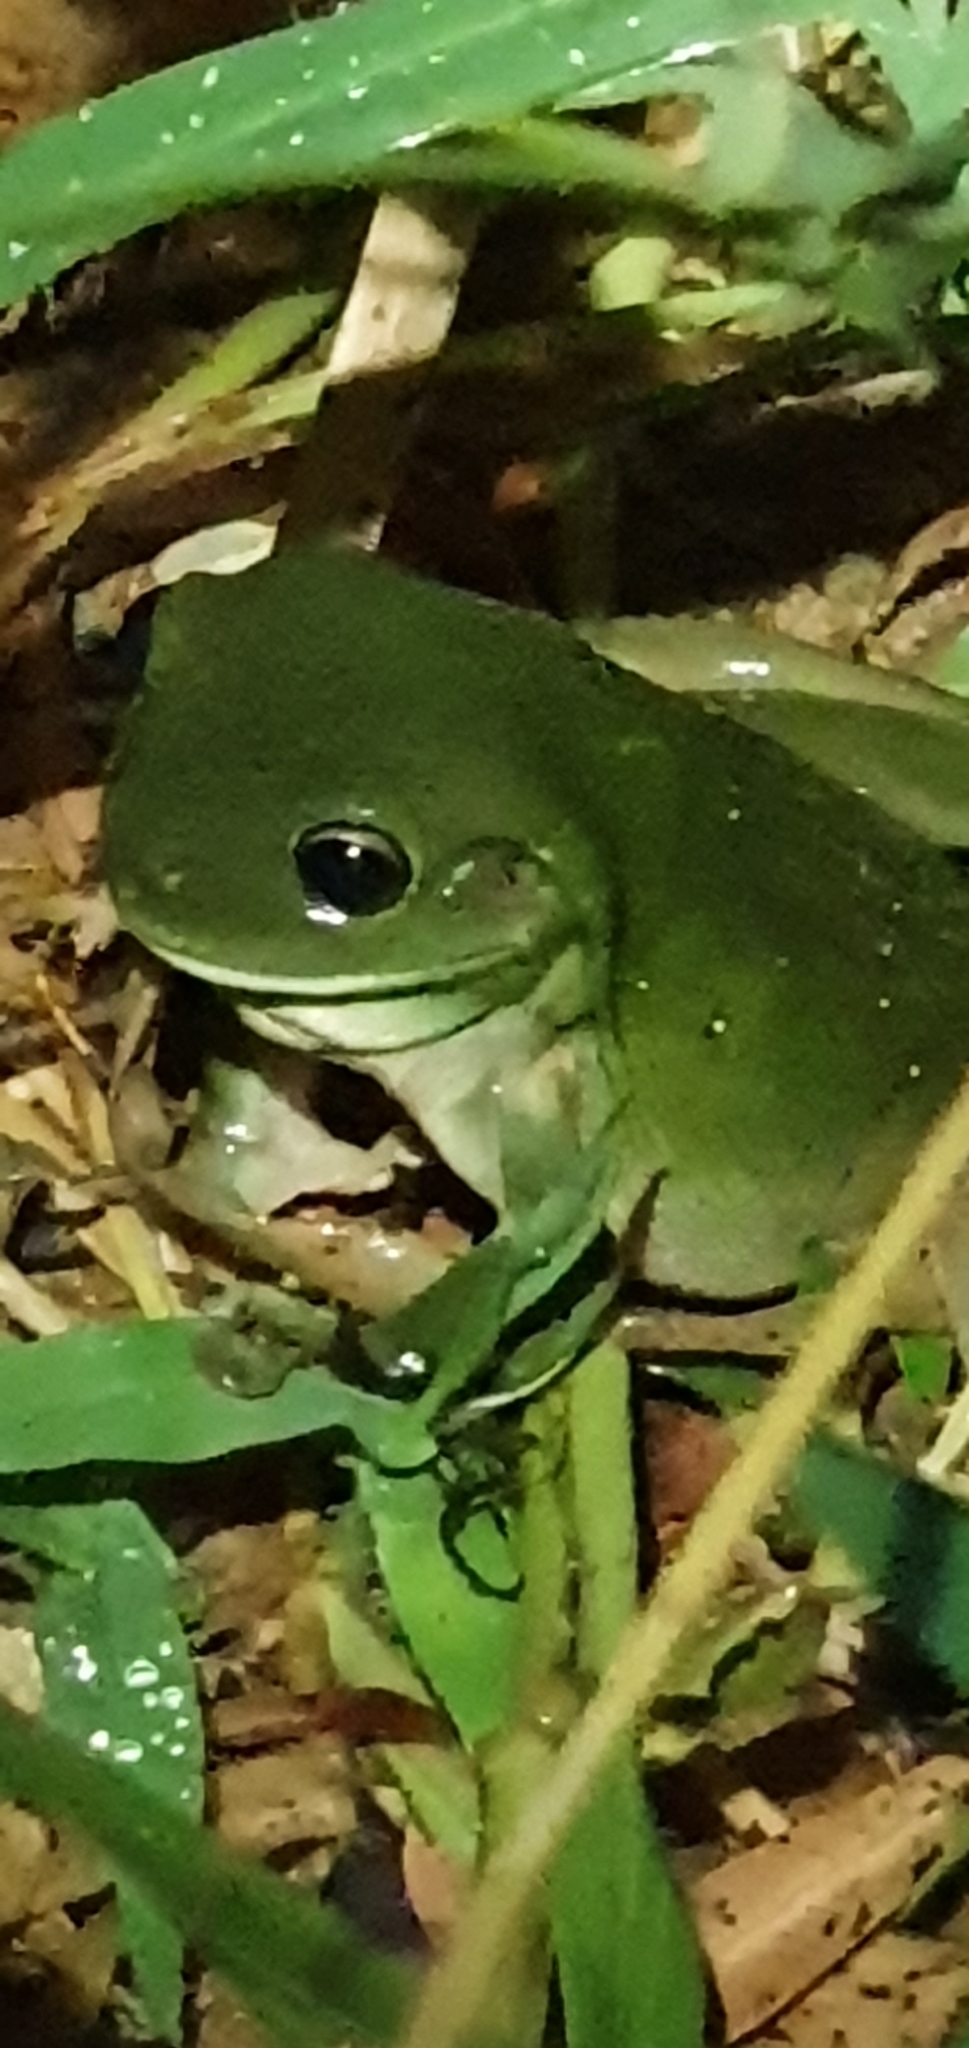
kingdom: Animalia
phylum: Chordata
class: Amphibia
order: Anura
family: Pelodryadidae
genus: Ranoidea
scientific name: Ranoidea caerulea
